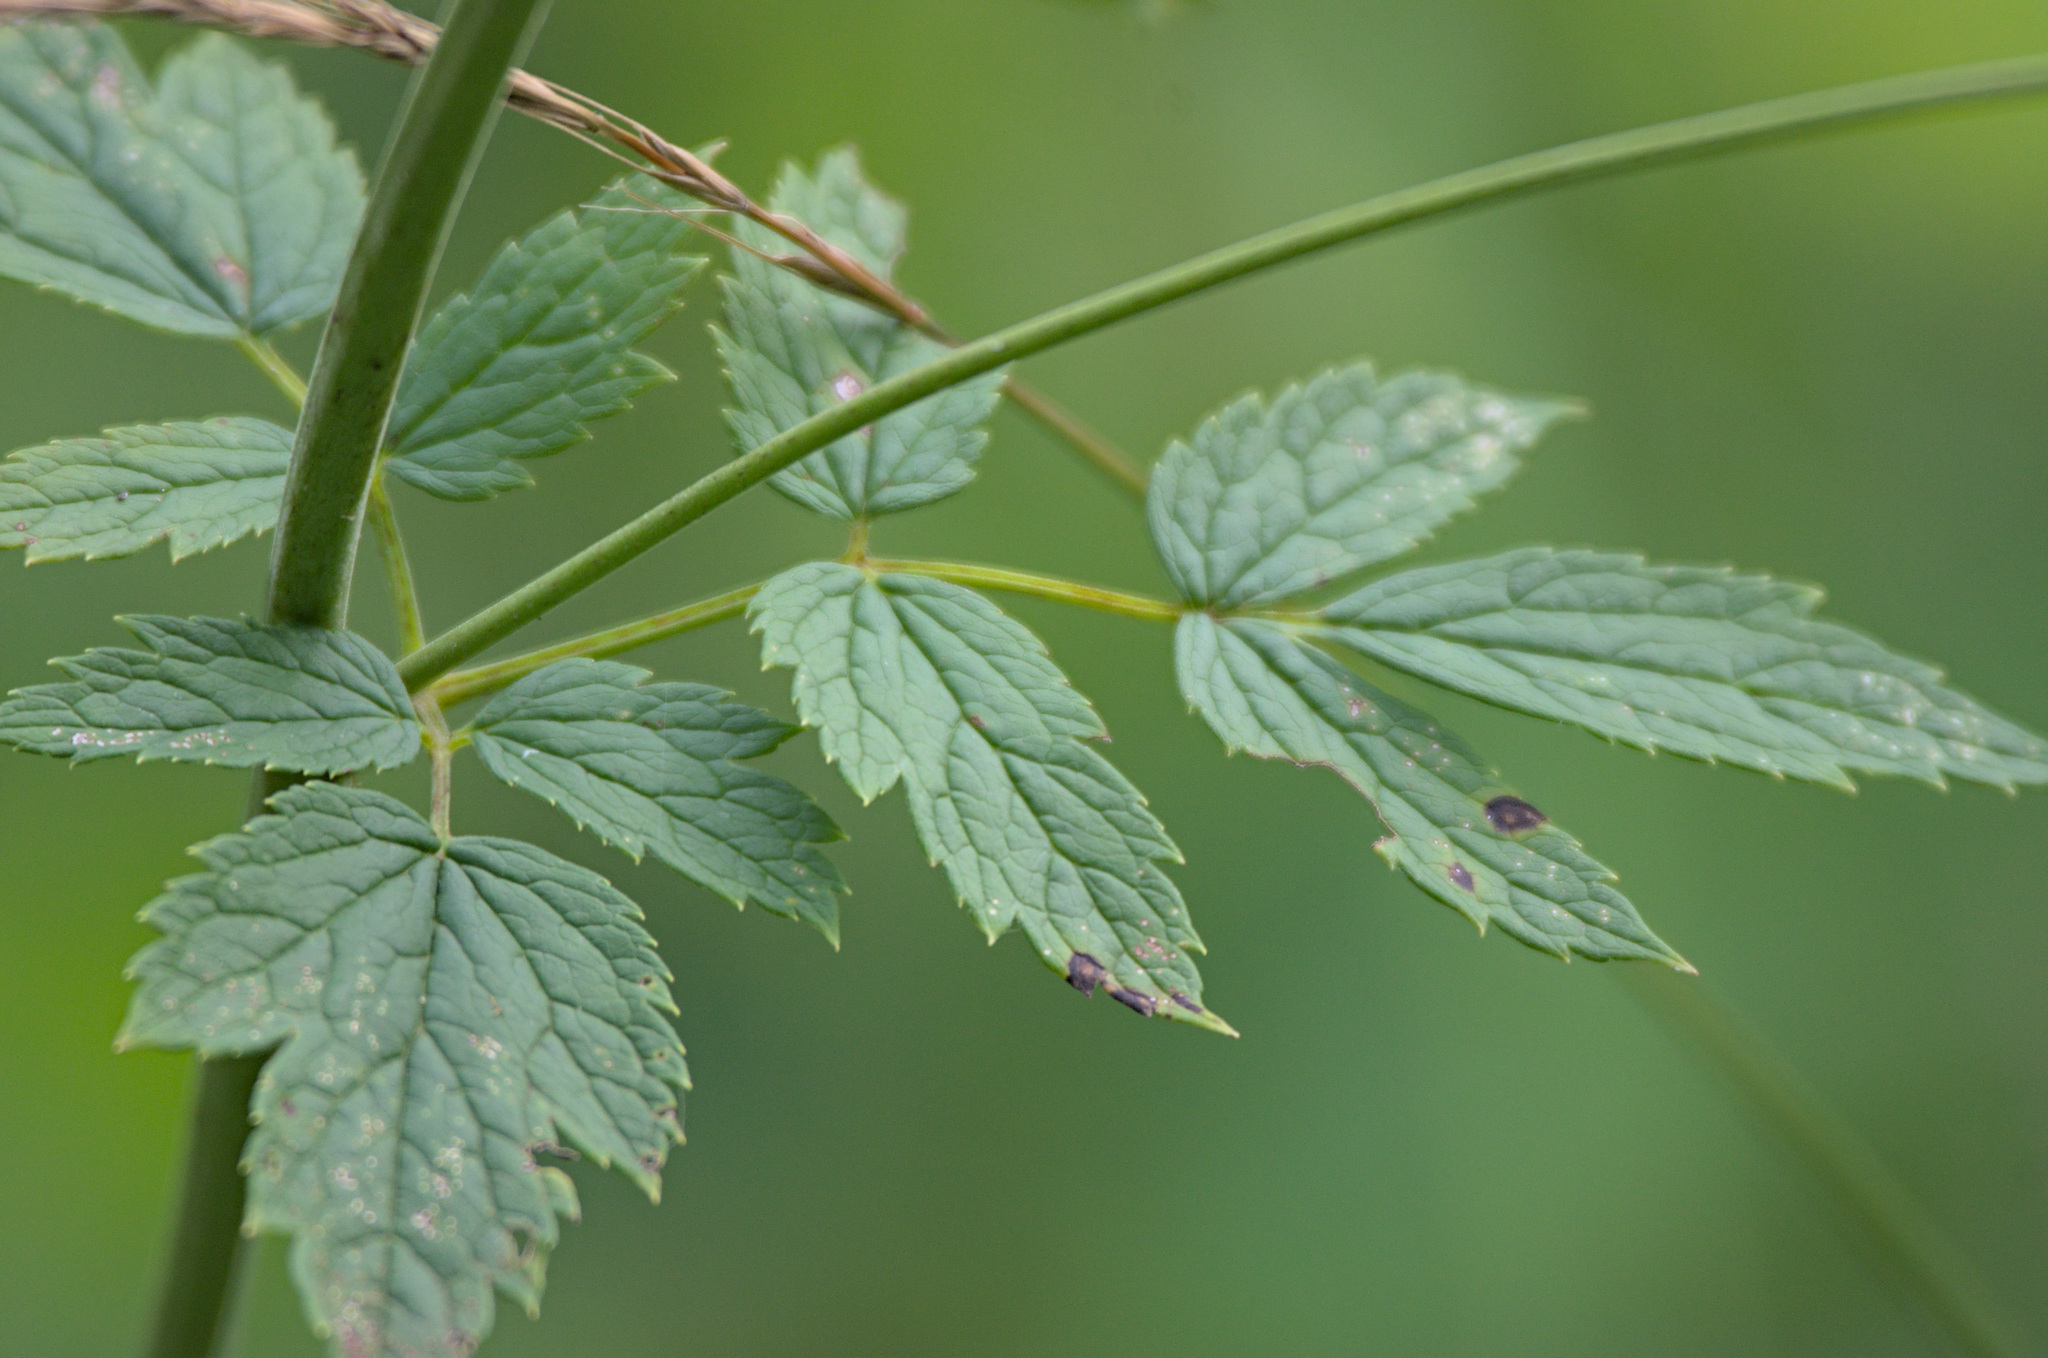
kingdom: Plantae
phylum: Tracheophyta
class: Magnoliopsida
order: Ranunculales
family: Ranunculaceae
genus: Actaea
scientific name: Actaea cimicifuga
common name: Chinese cimicifuga
